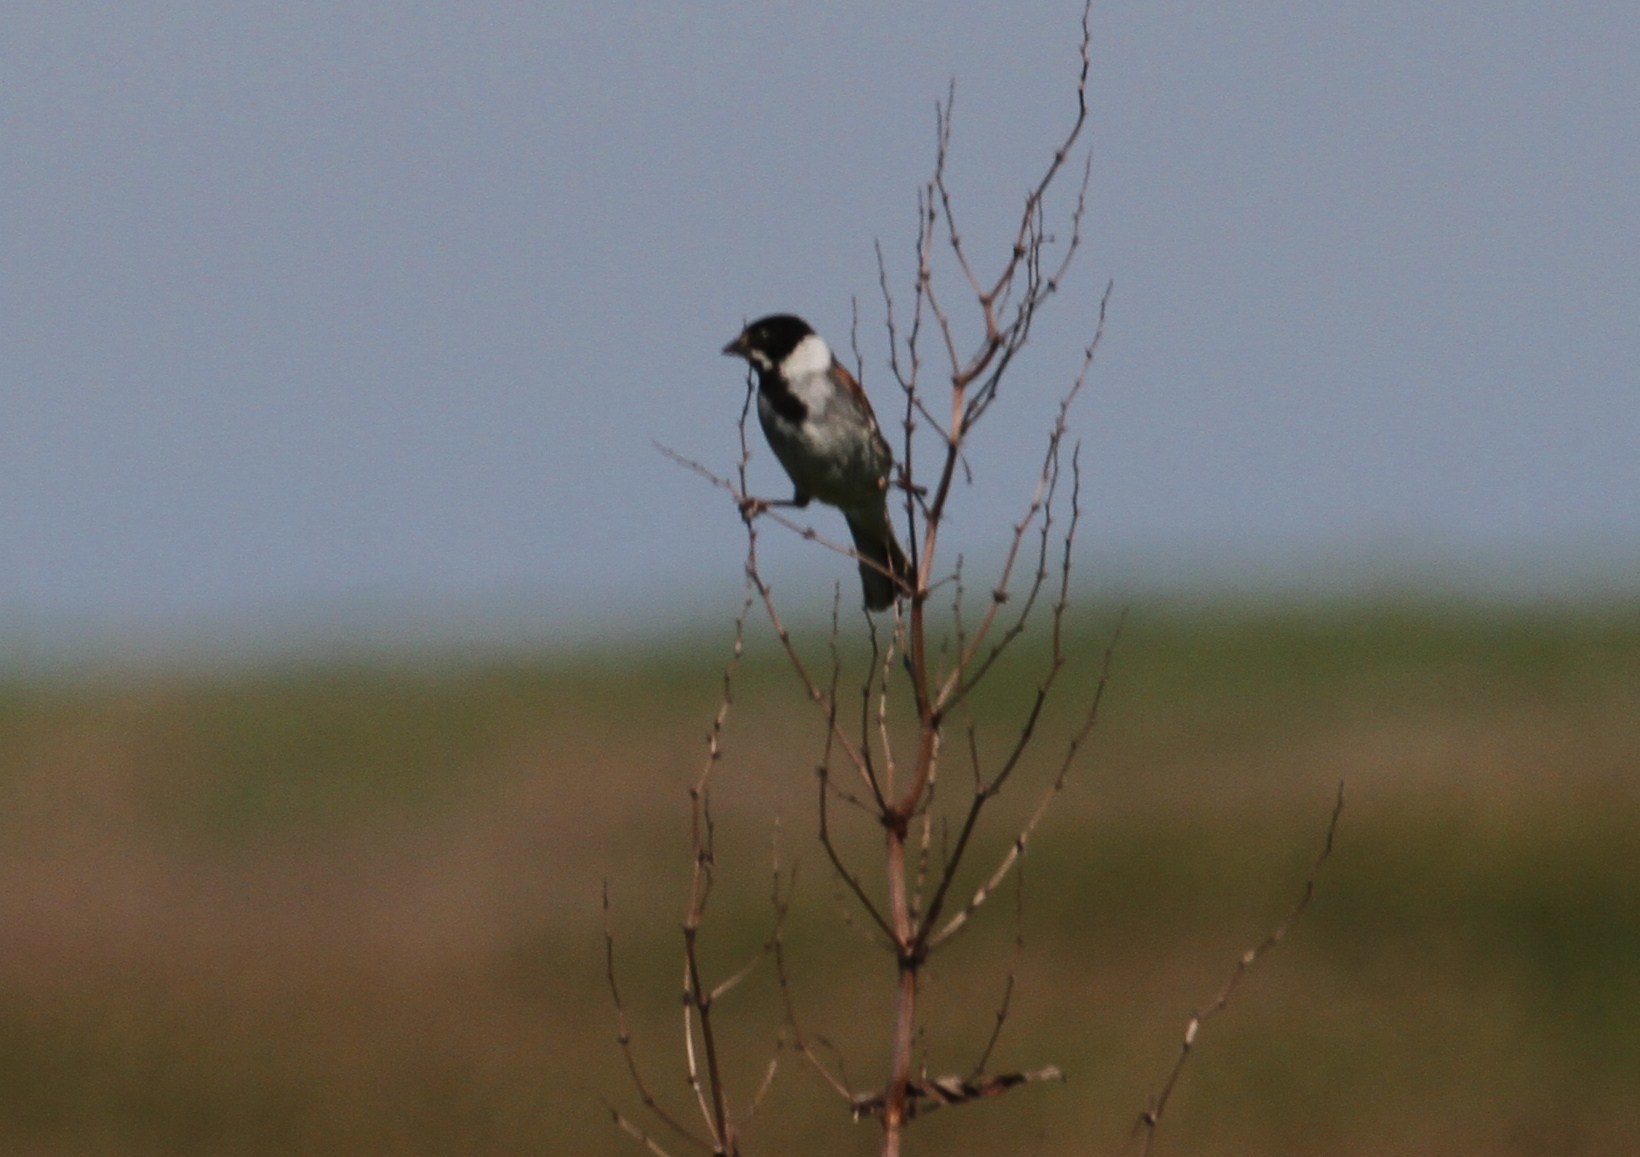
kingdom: Animalia
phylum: Chordata
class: Aves
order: Passeriformes
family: Emberizidae
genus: Emberiza
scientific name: Emberiza schoeniclus
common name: Reed bunting
